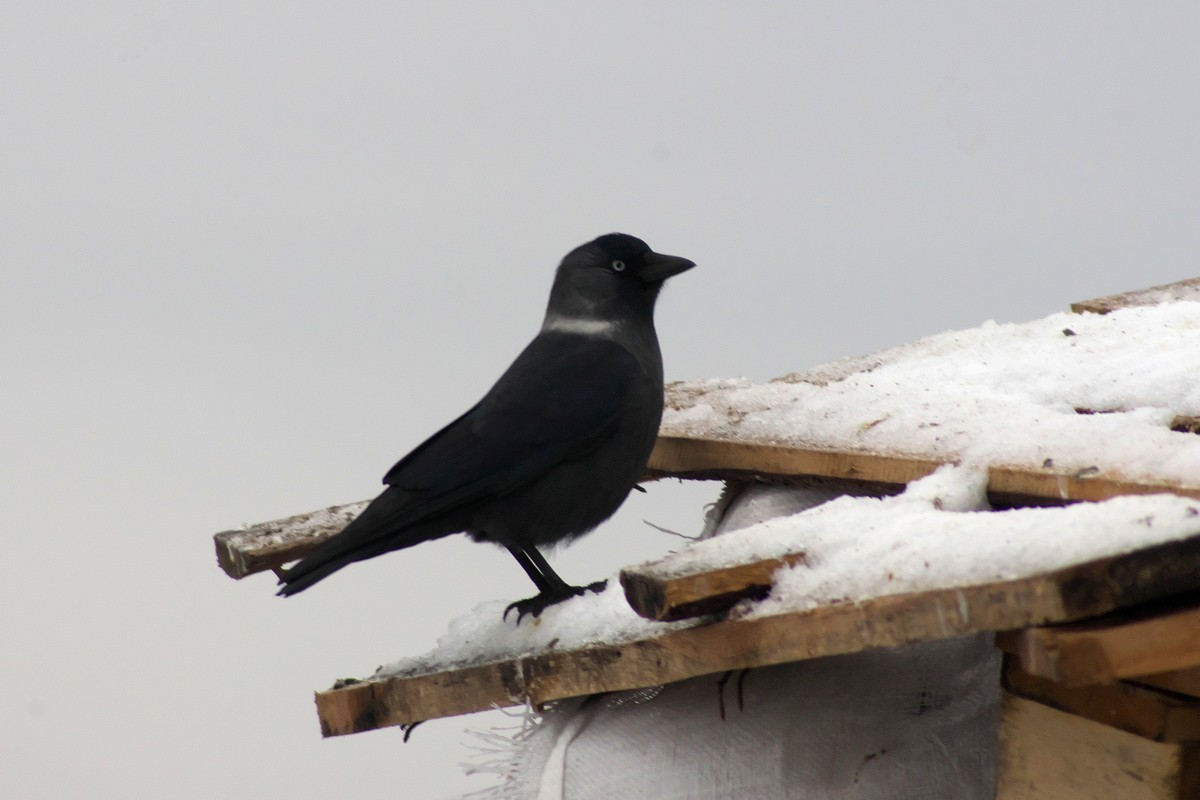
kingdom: Animalia
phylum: Chordata
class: Aves
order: Passeriformes
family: Corvidae
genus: Coloeus
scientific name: Coloeus monedula
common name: Western jackdaw
